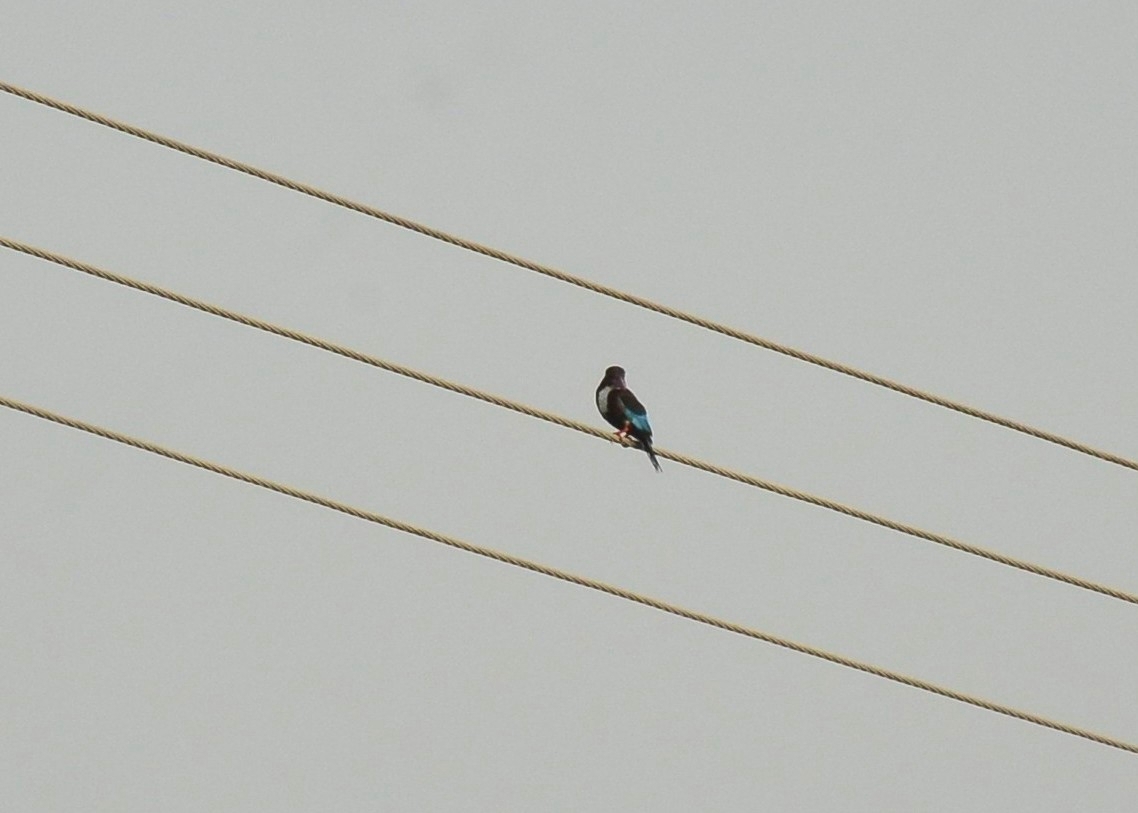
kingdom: Animalia
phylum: Chordata
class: Aves
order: Coraciiformes
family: Alcedinidae
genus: Halcyon
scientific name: Halcyon smyrnensis
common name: White-throated kingfisher
